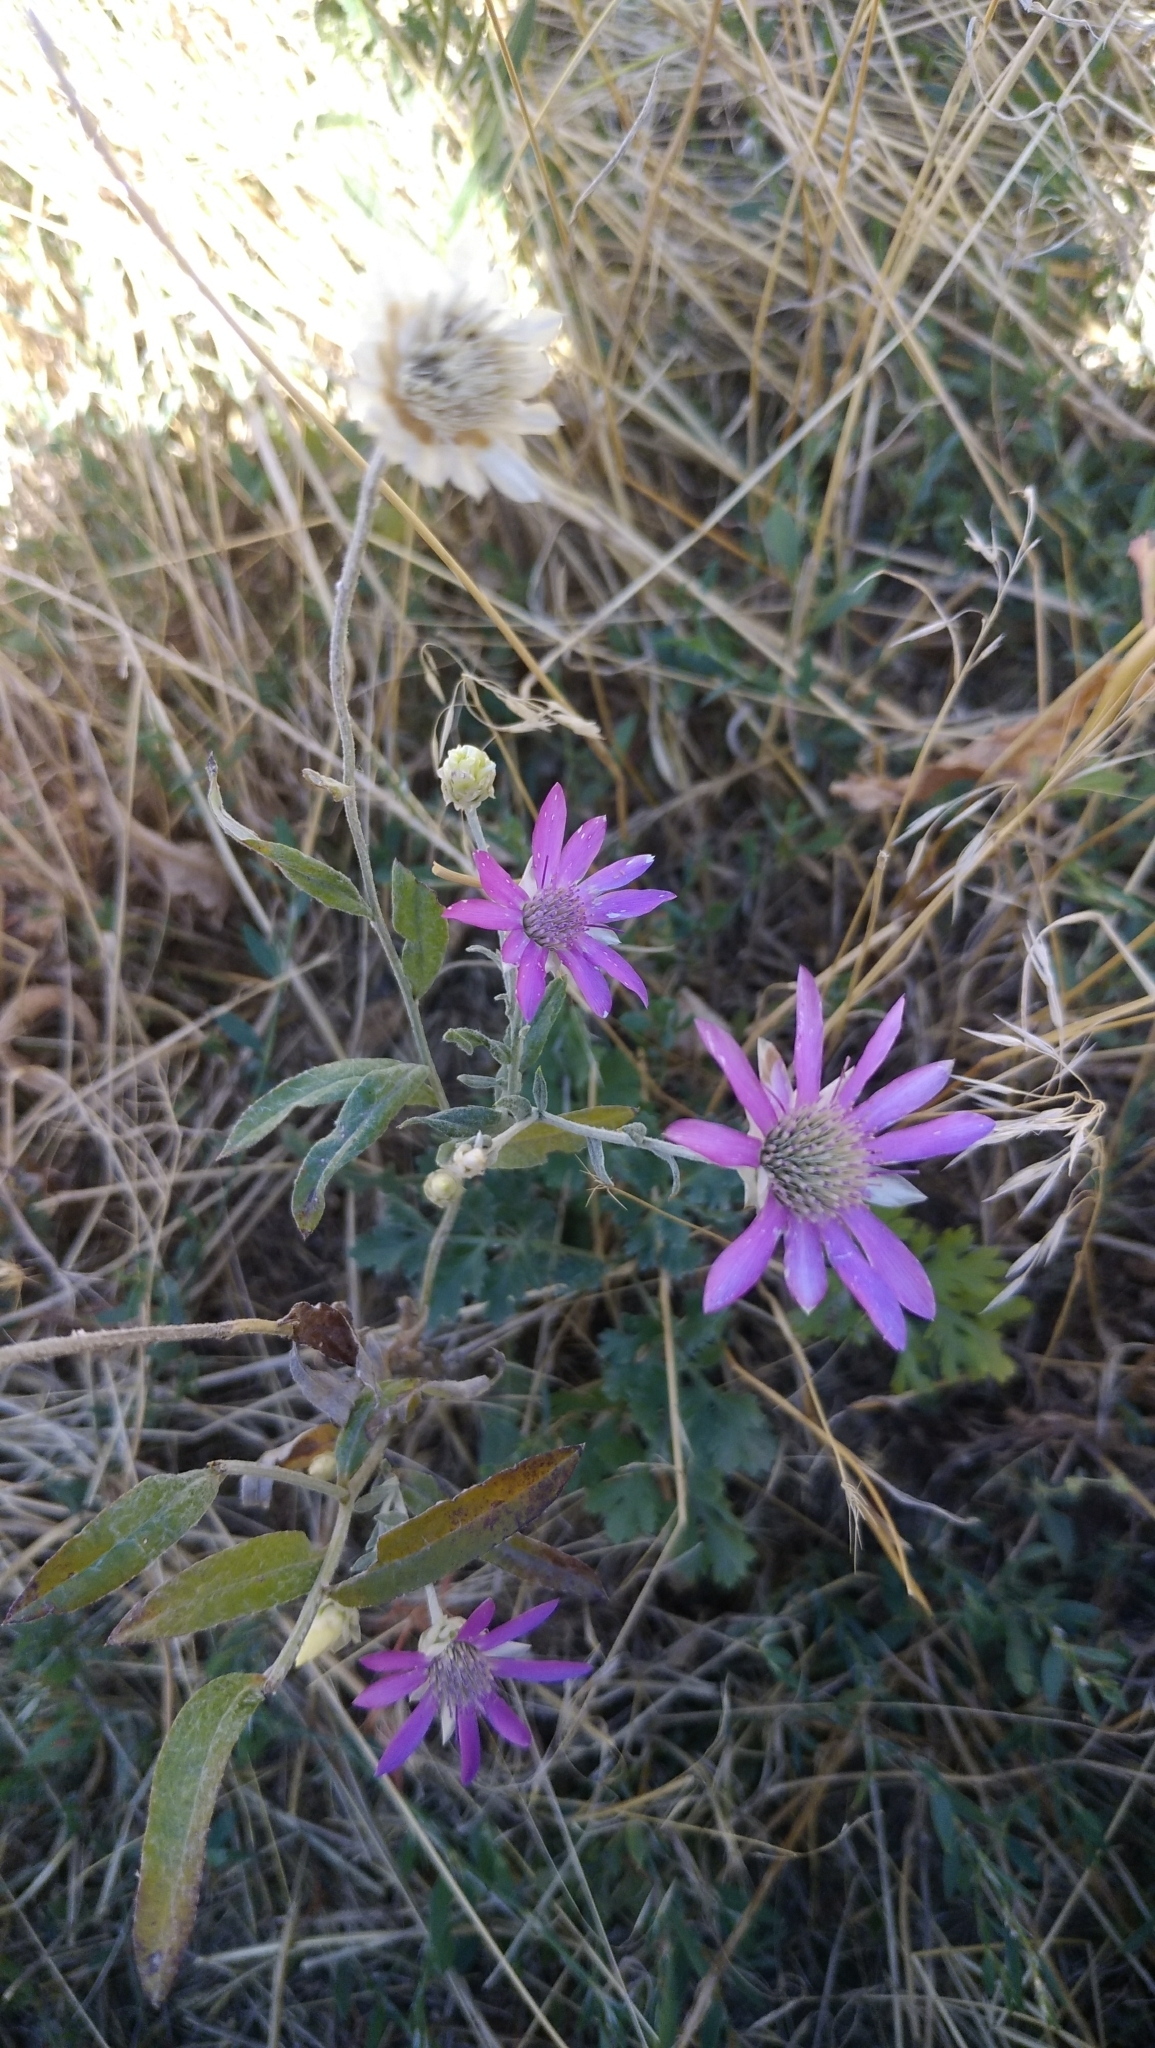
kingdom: Plantae
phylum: Tracheophyta
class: Magnoliopsida
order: Asterales
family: Asteraceae
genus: Xeranthemum
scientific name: Xeranthemum annuum
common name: Immortelle
